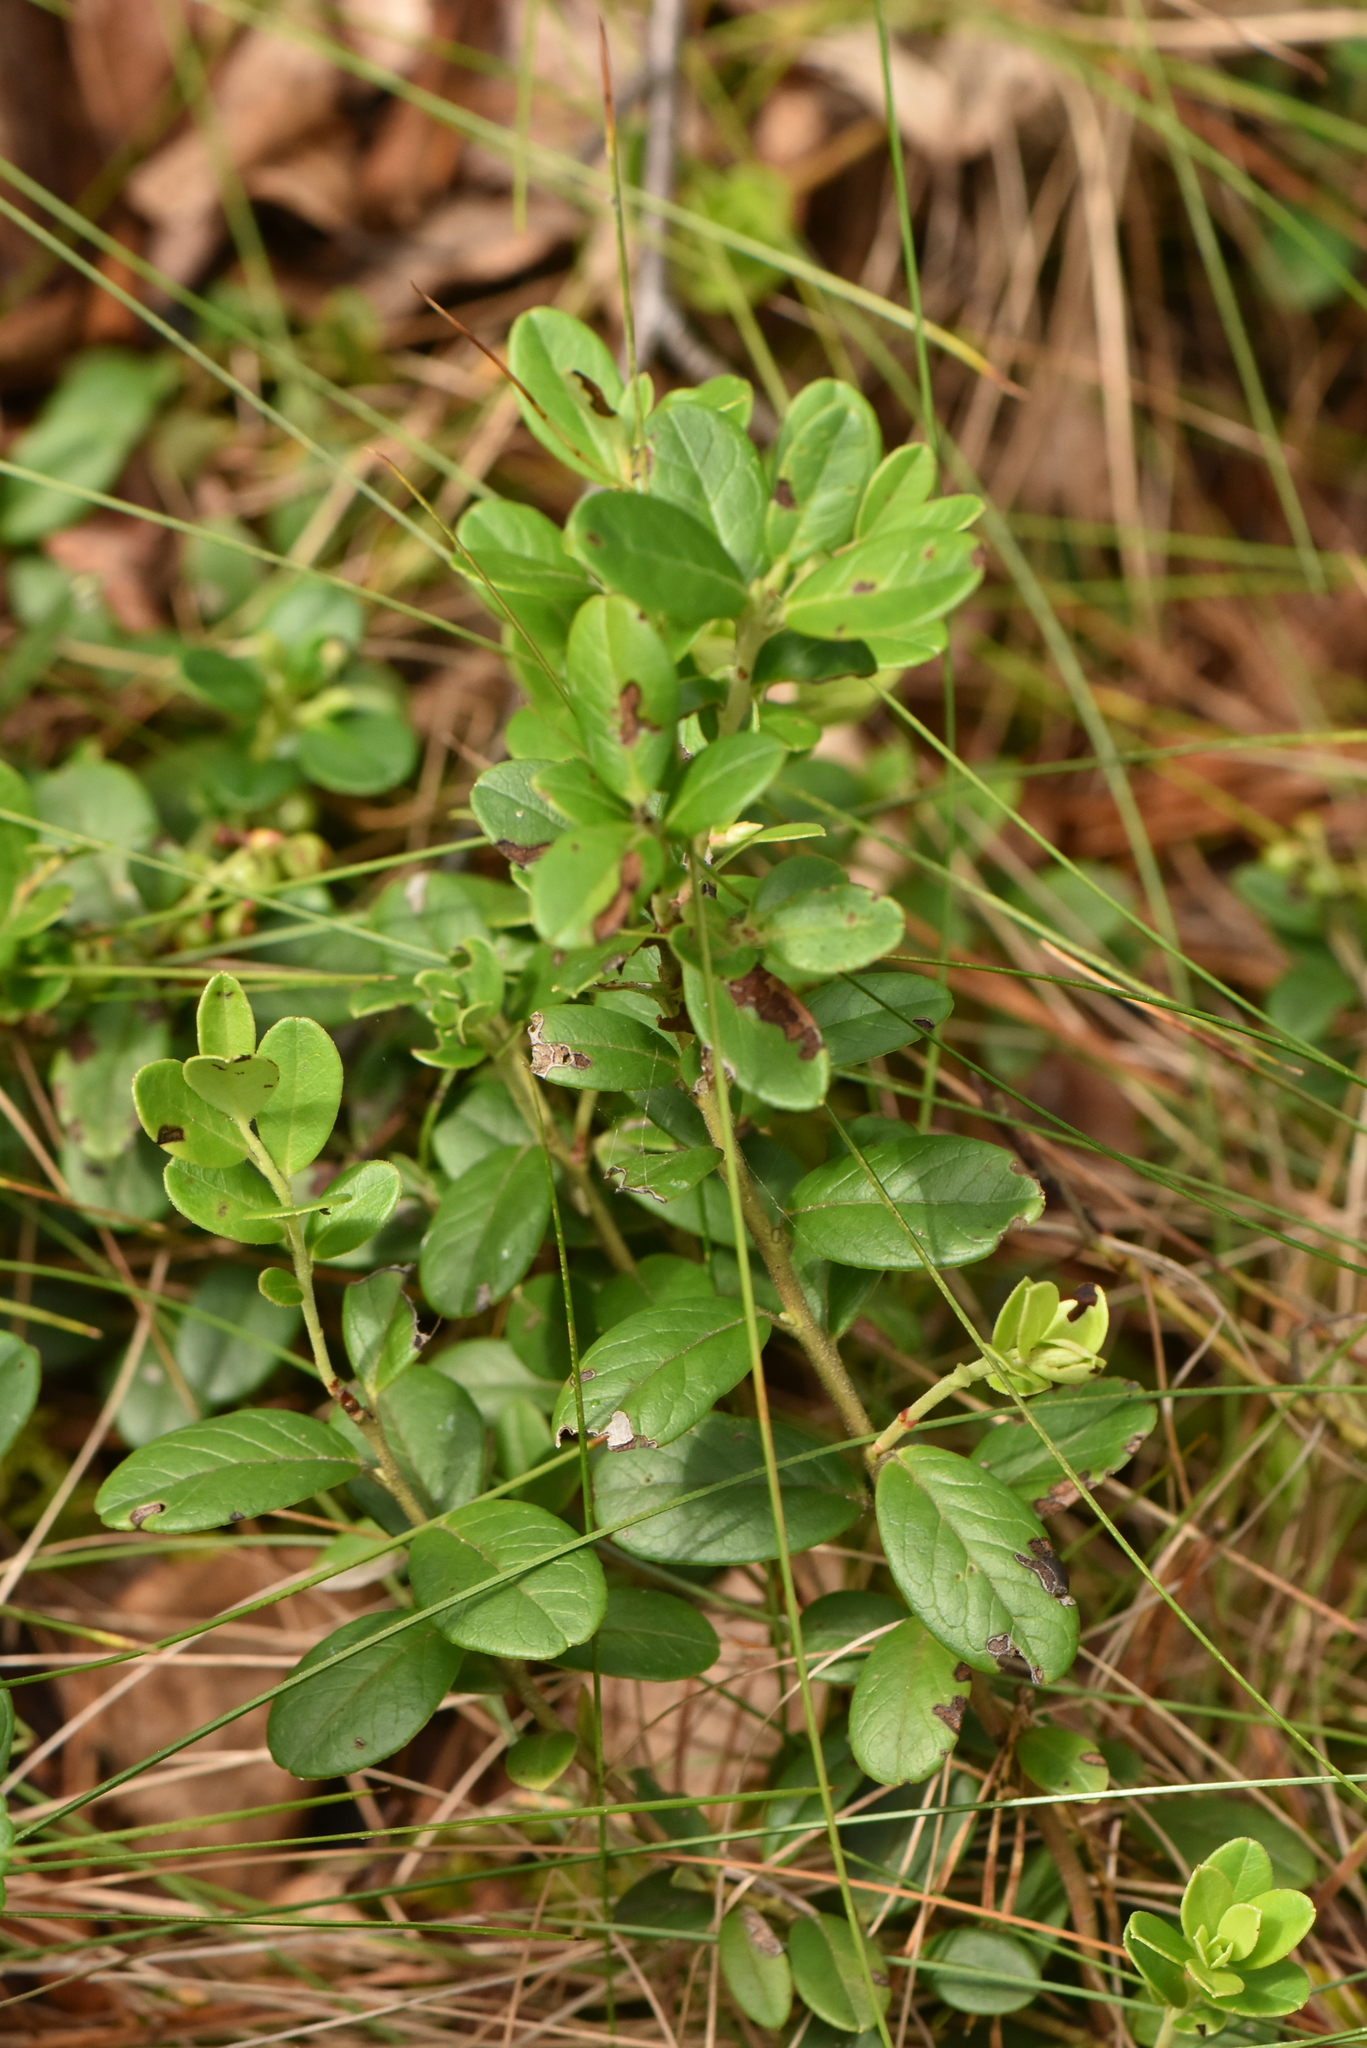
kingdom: Plantae
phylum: Tracheophyta
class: Magnoliopsida
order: Ericales
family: Ericaceae
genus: Vaccinium
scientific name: Vaccinium vitis-idaea
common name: Cowberry
